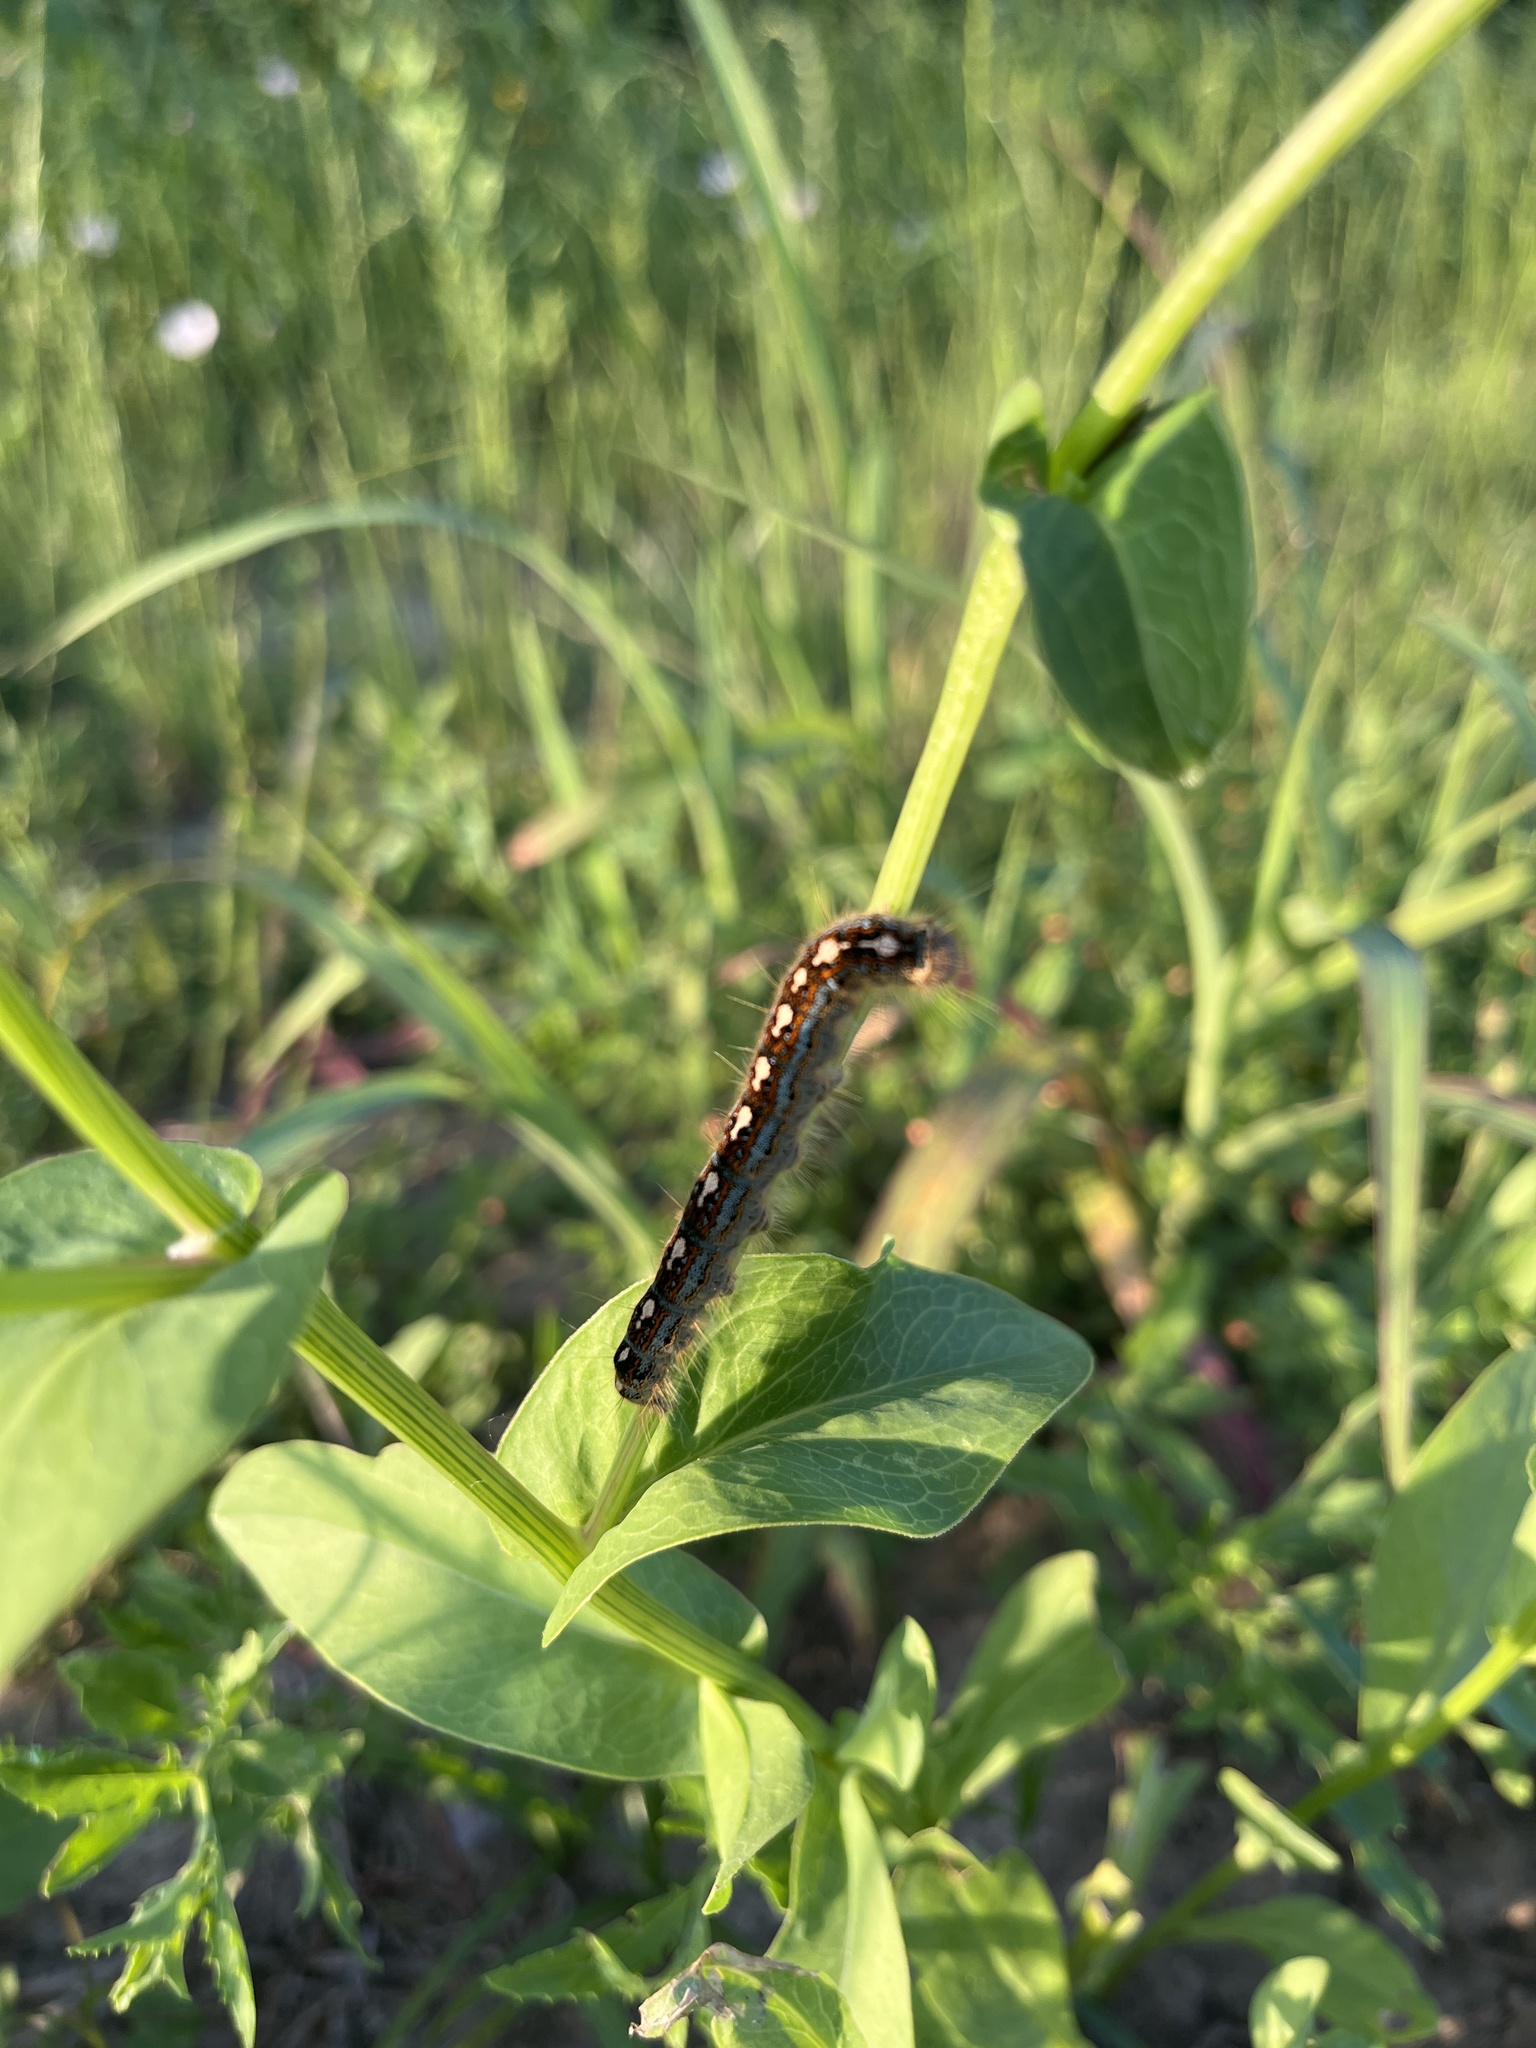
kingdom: Animalia
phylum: Arthropoda
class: Insecta
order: Lepidoptera
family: Lasiocampidae
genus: Malacosoma
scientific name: Malacosoma disstria
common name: Forest tent caterpillar
